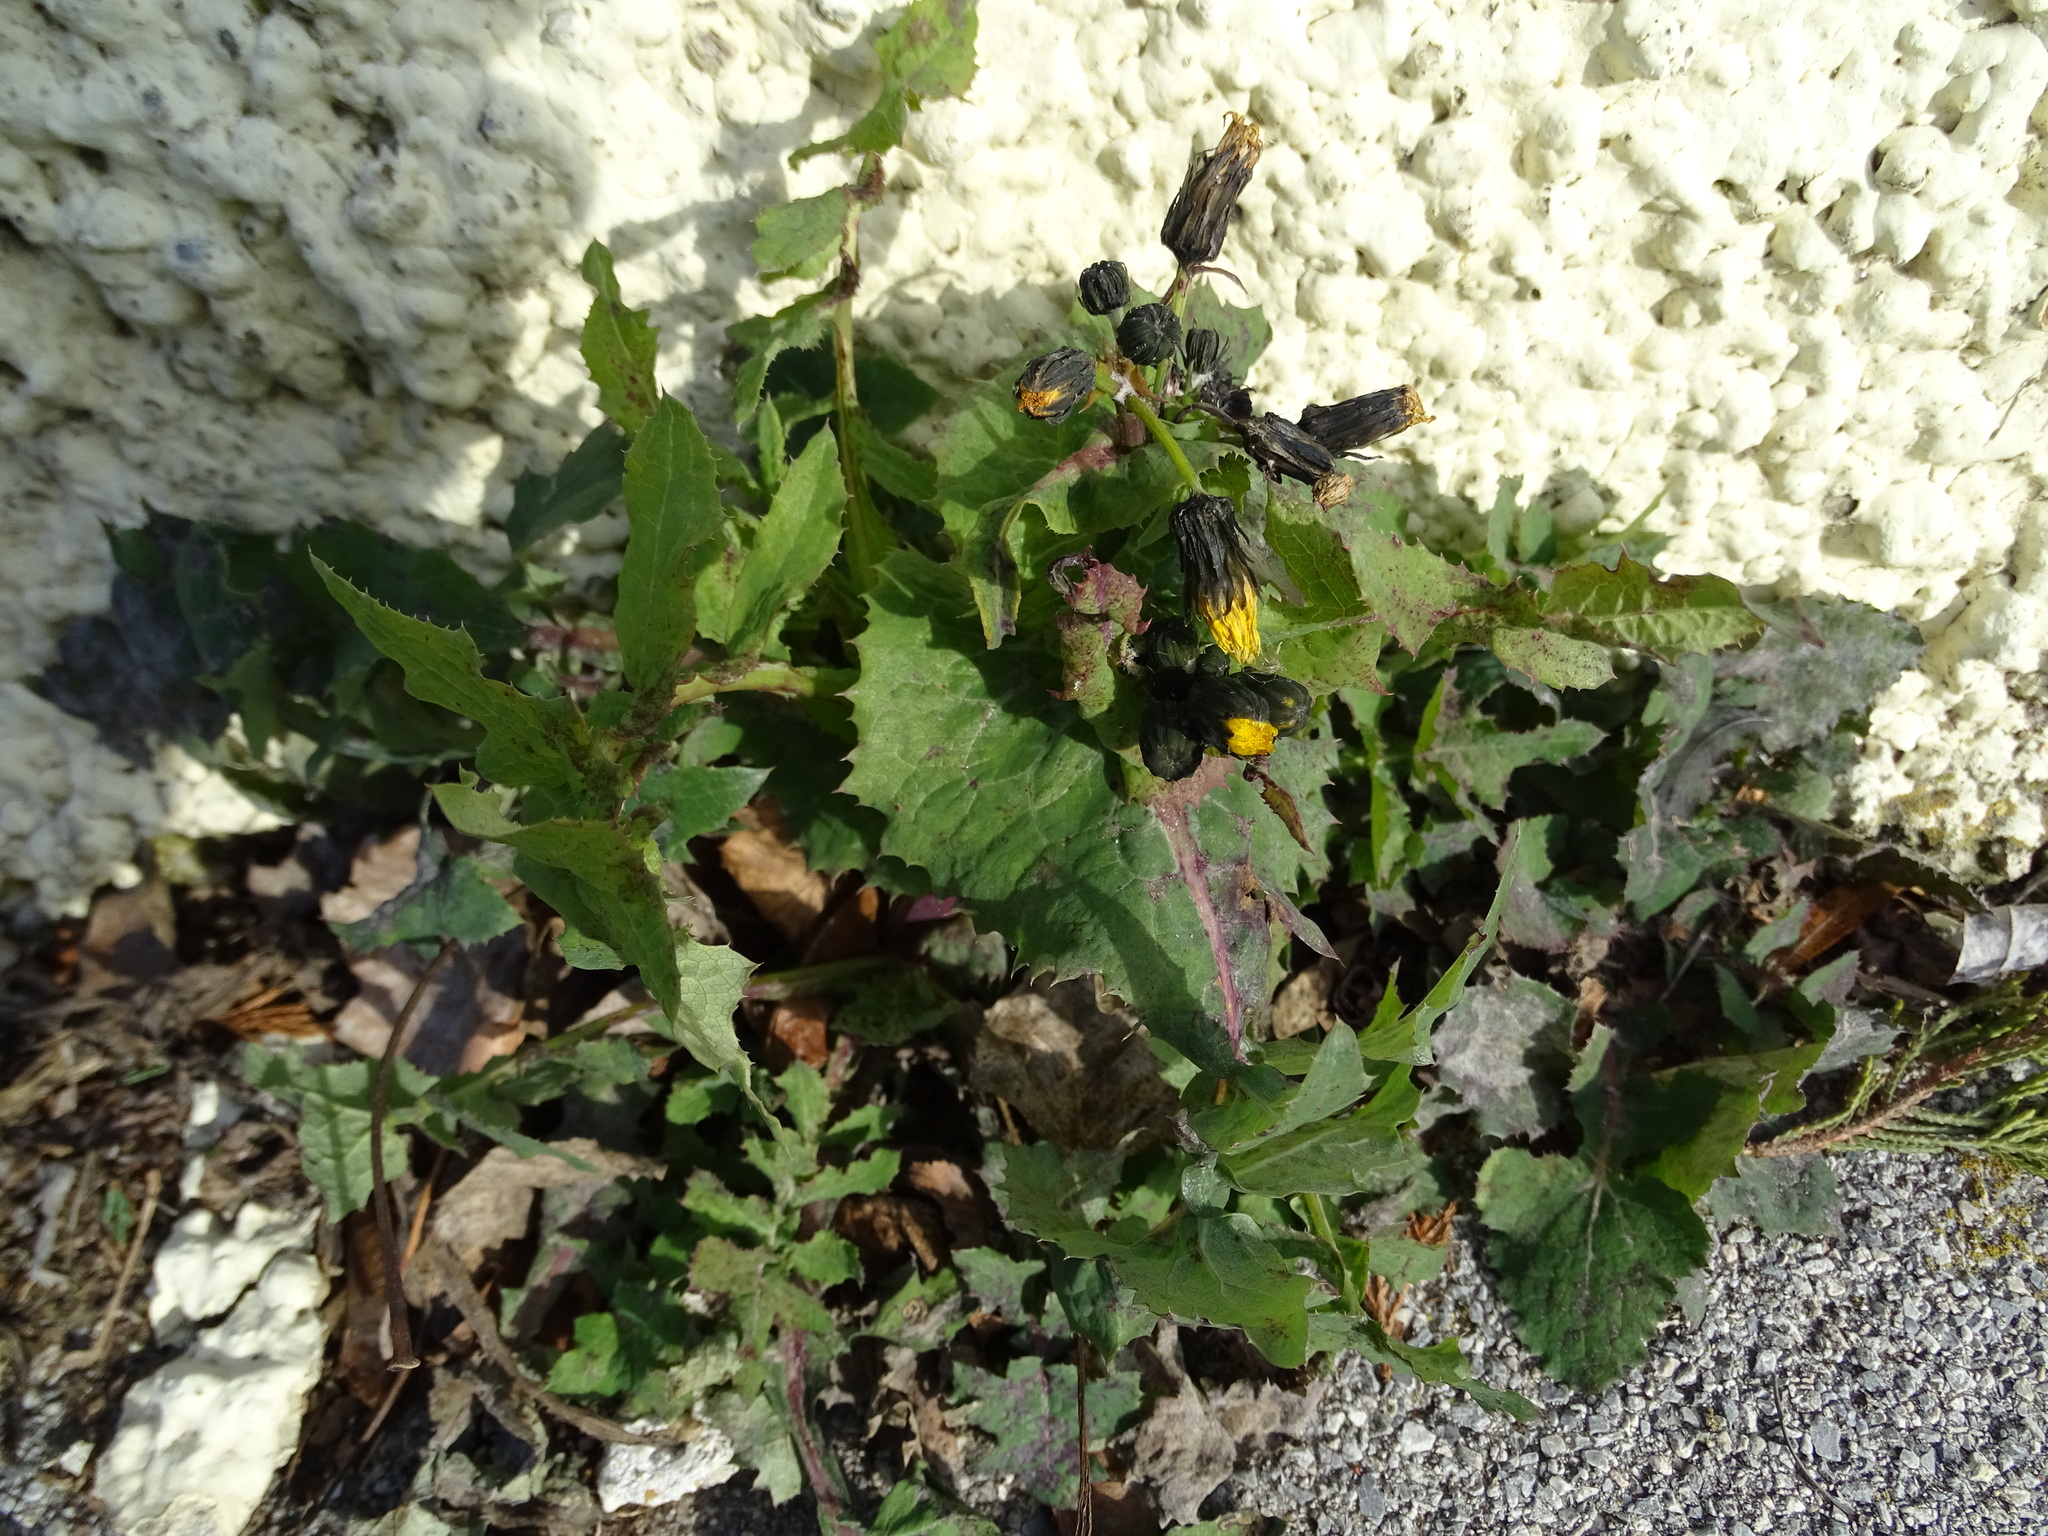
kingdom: Plantae
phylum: Tracheophyta
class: Magnoliopsida
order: Asterales
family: Asteraceae
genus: Sonchus
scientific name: Sonchus oleraceus
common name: Common sowthistle
